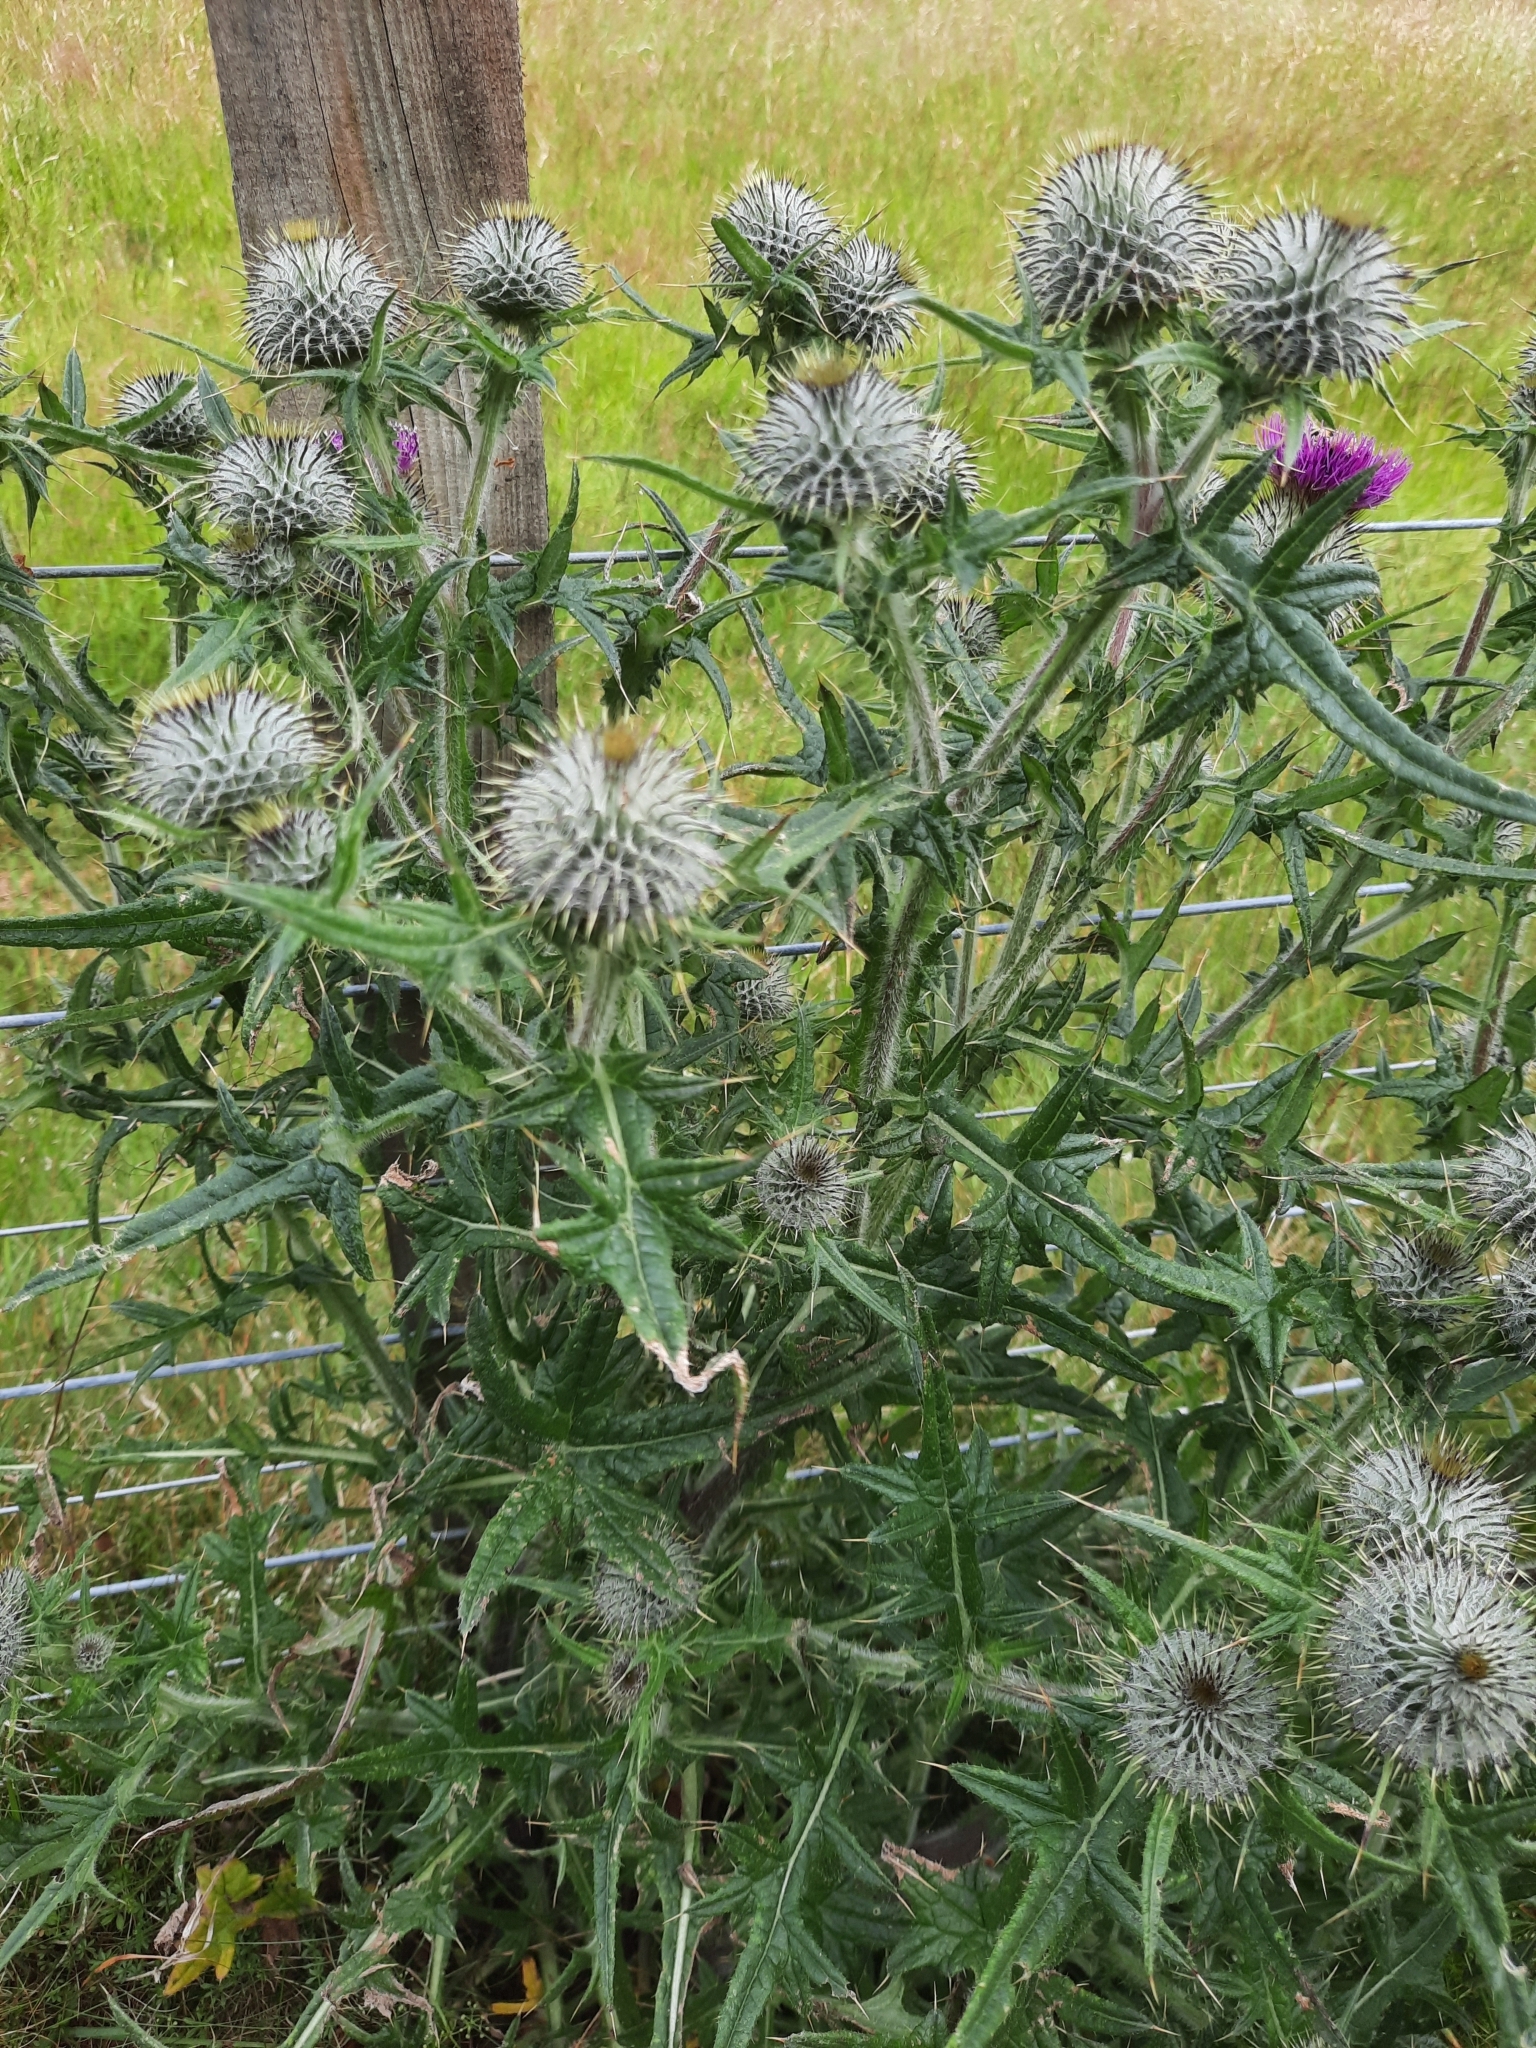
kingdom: Plantae
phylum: Tracheophyta
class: Magnoliopsida
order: Asterales
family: Asteraceae
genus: Cirsium
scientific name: Cirsium vulgare
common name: Bull thistle
